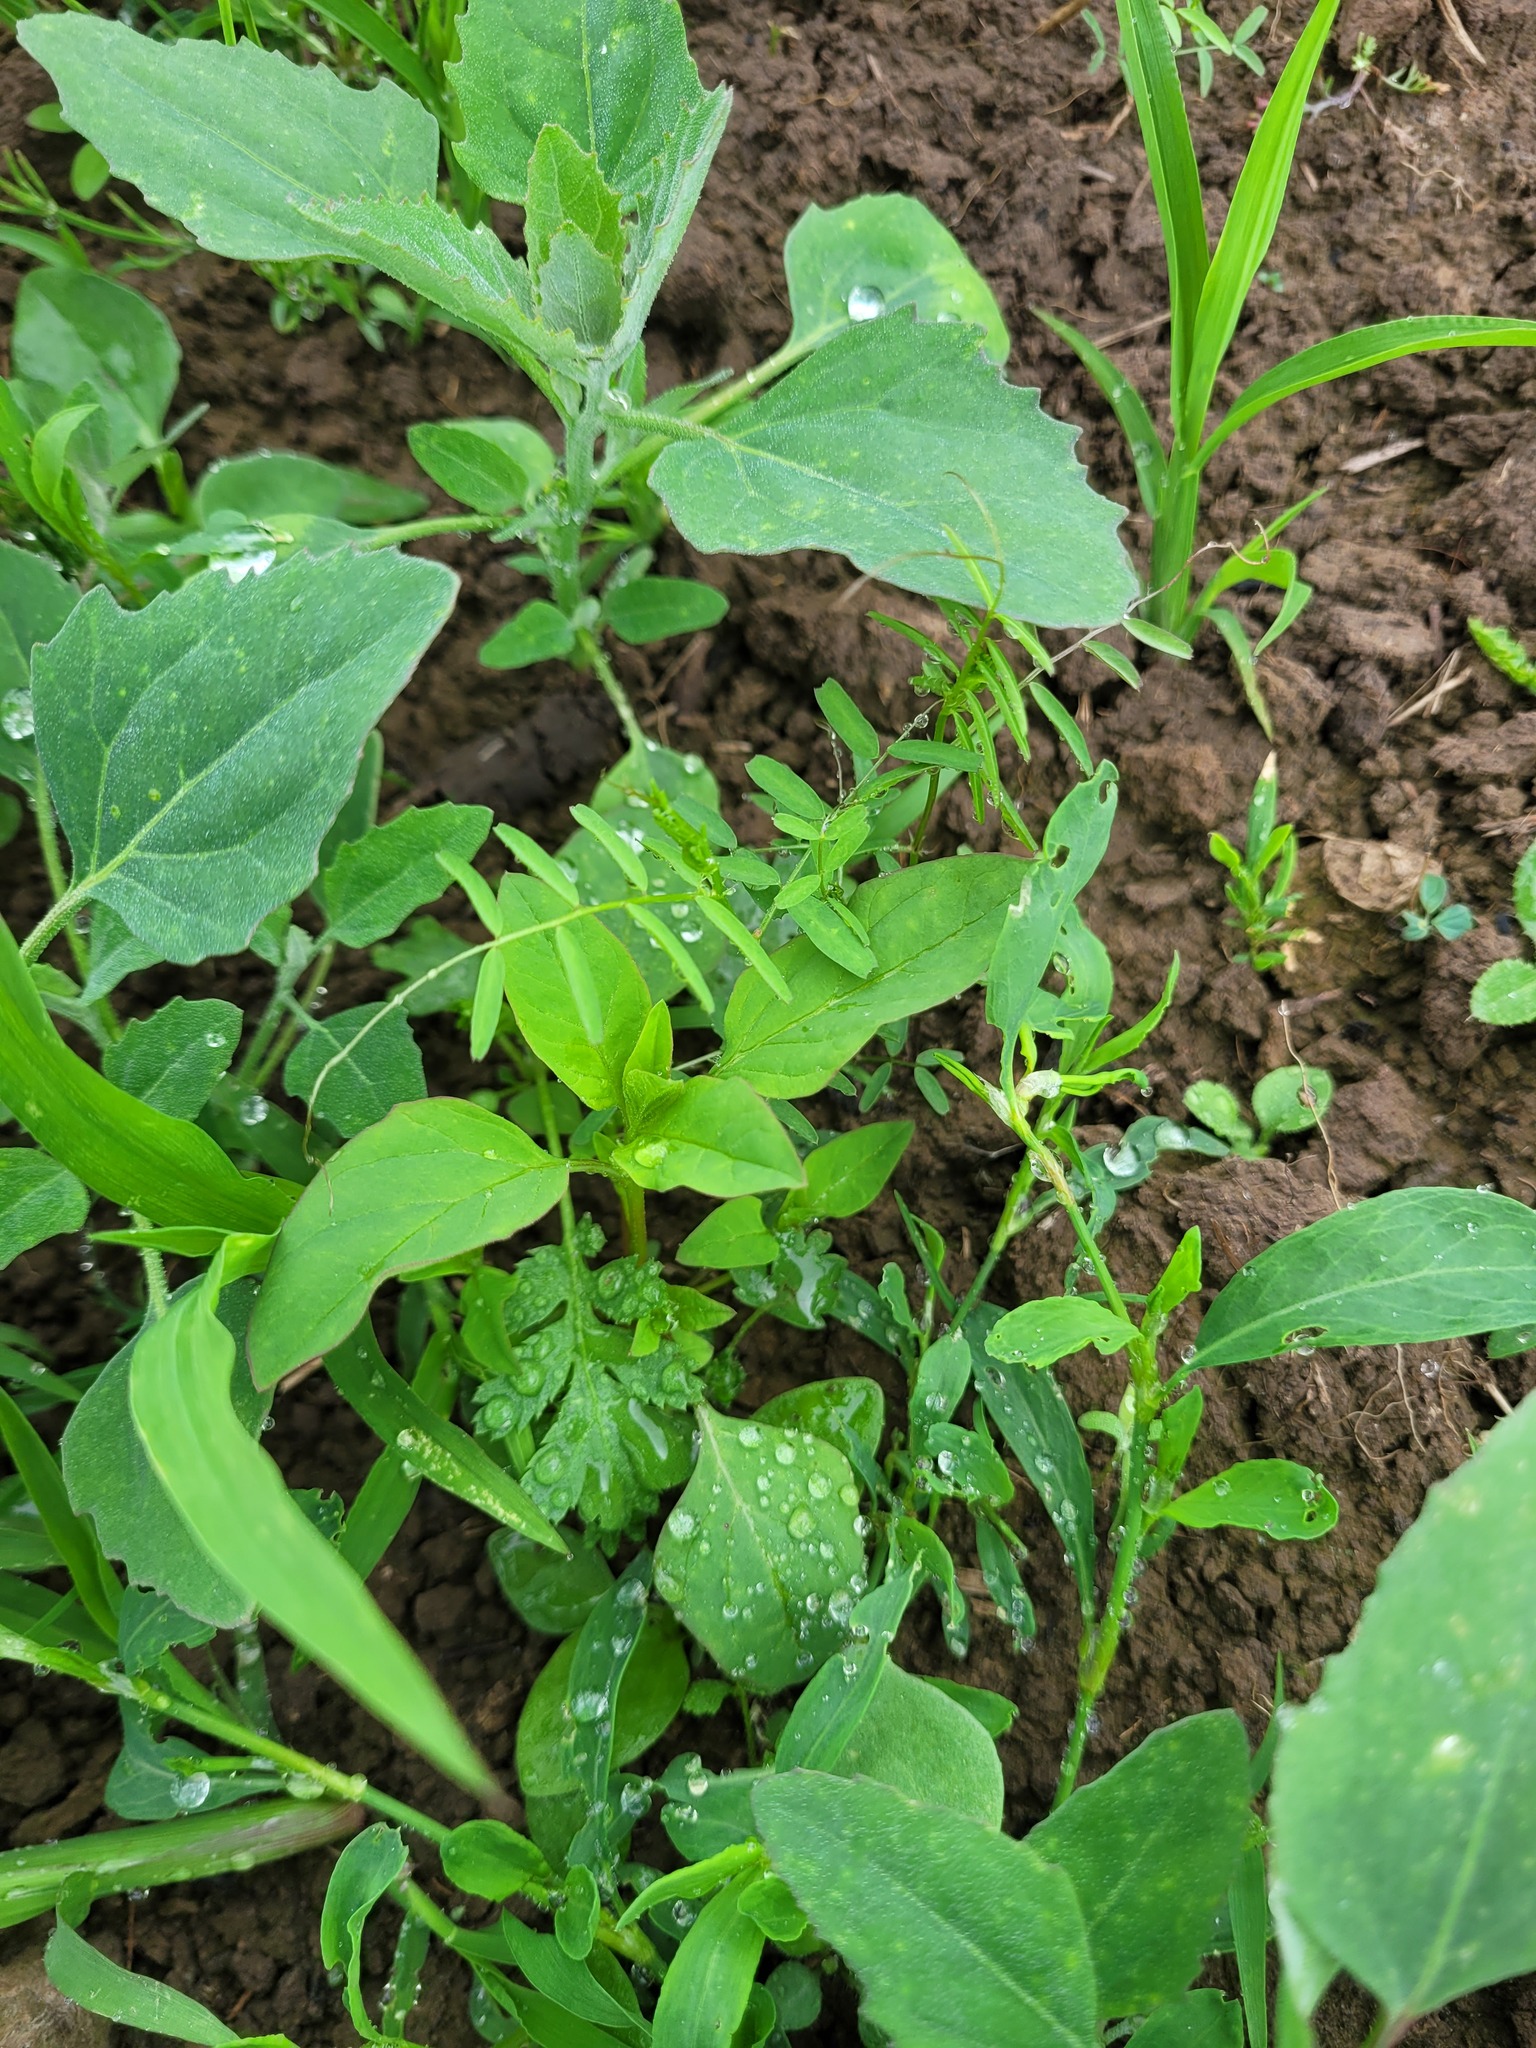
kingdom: Plantae
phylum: Tracheophyta
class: Magnoliopsida
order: Caryophyllales
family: Amaranthaceae
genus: Lipandra
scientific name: Lipandra polysperma
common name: Many-seed goosefoot
